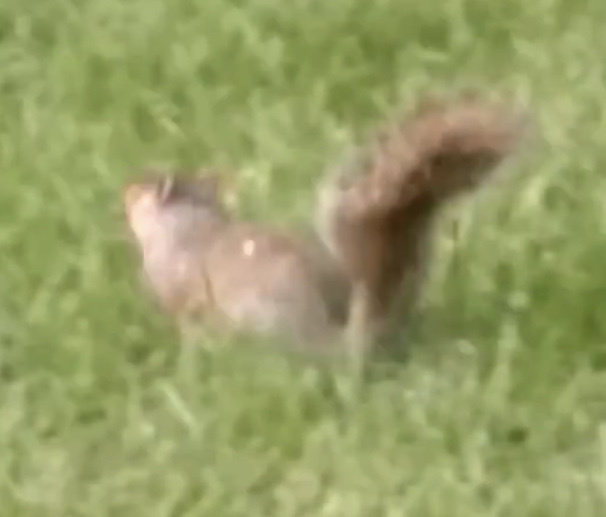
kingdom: Animalia
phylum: Chordata
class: Mammalia
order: Rodentia
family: Sciuridae
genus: Sciurus
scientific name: Sciurus carolinensis
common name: Eastern gray squirrel
